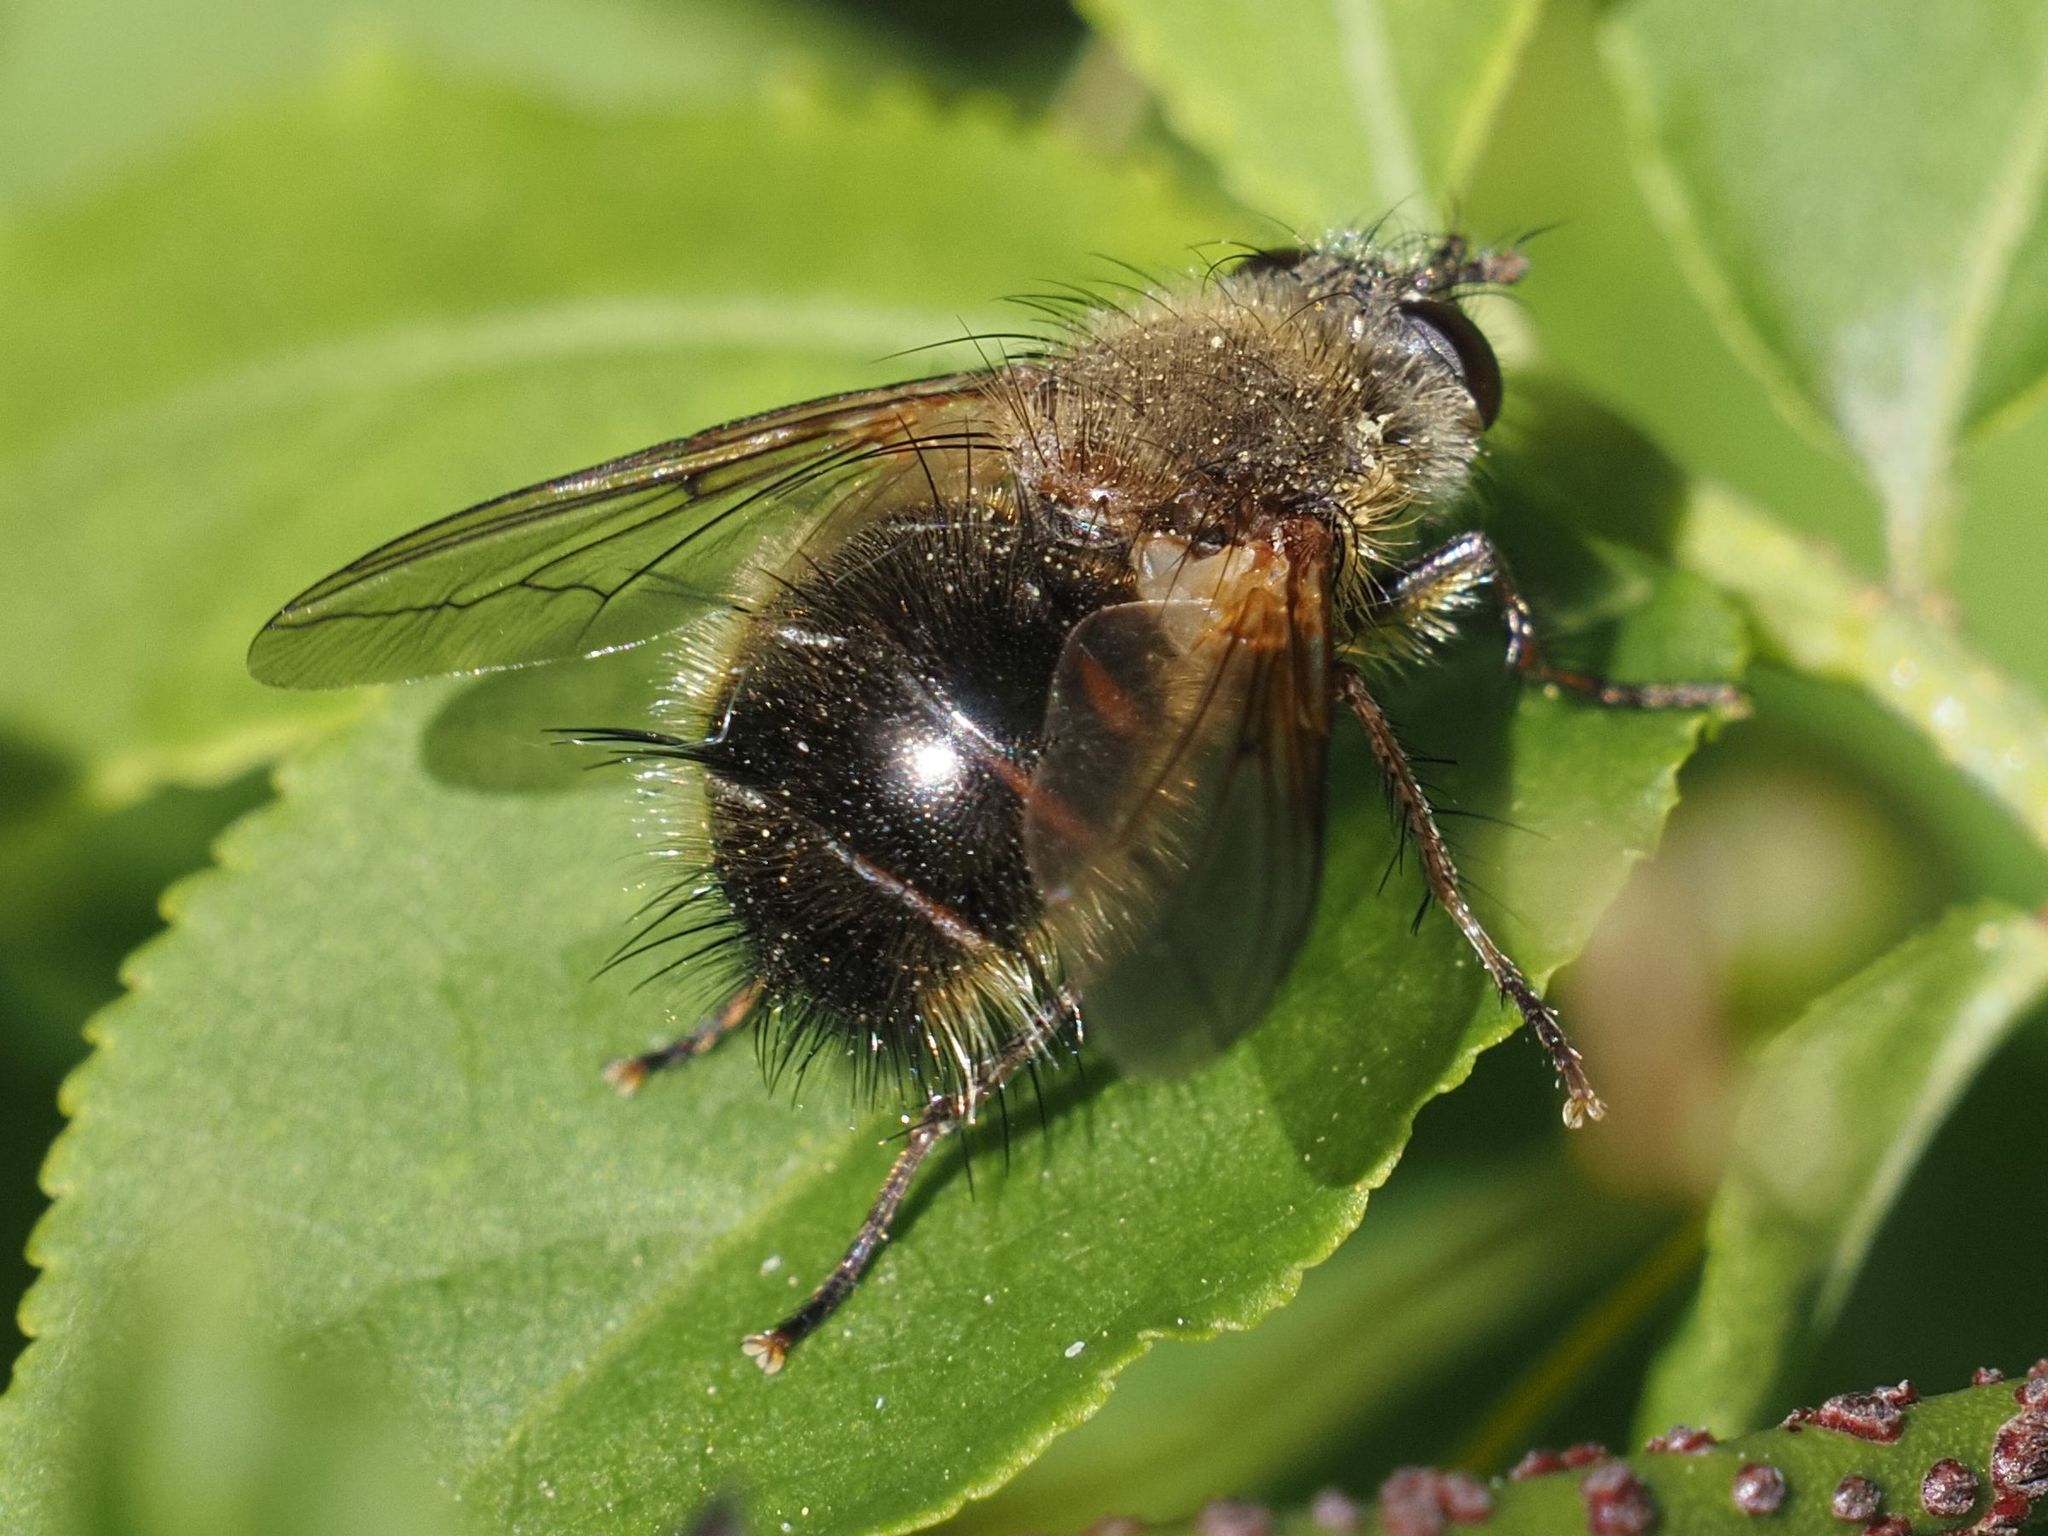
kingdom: Animalia
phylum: Arthropoda
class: Insecta
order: Diptera
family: Tachinidae
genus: Tachina
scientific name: Tachina ursina
